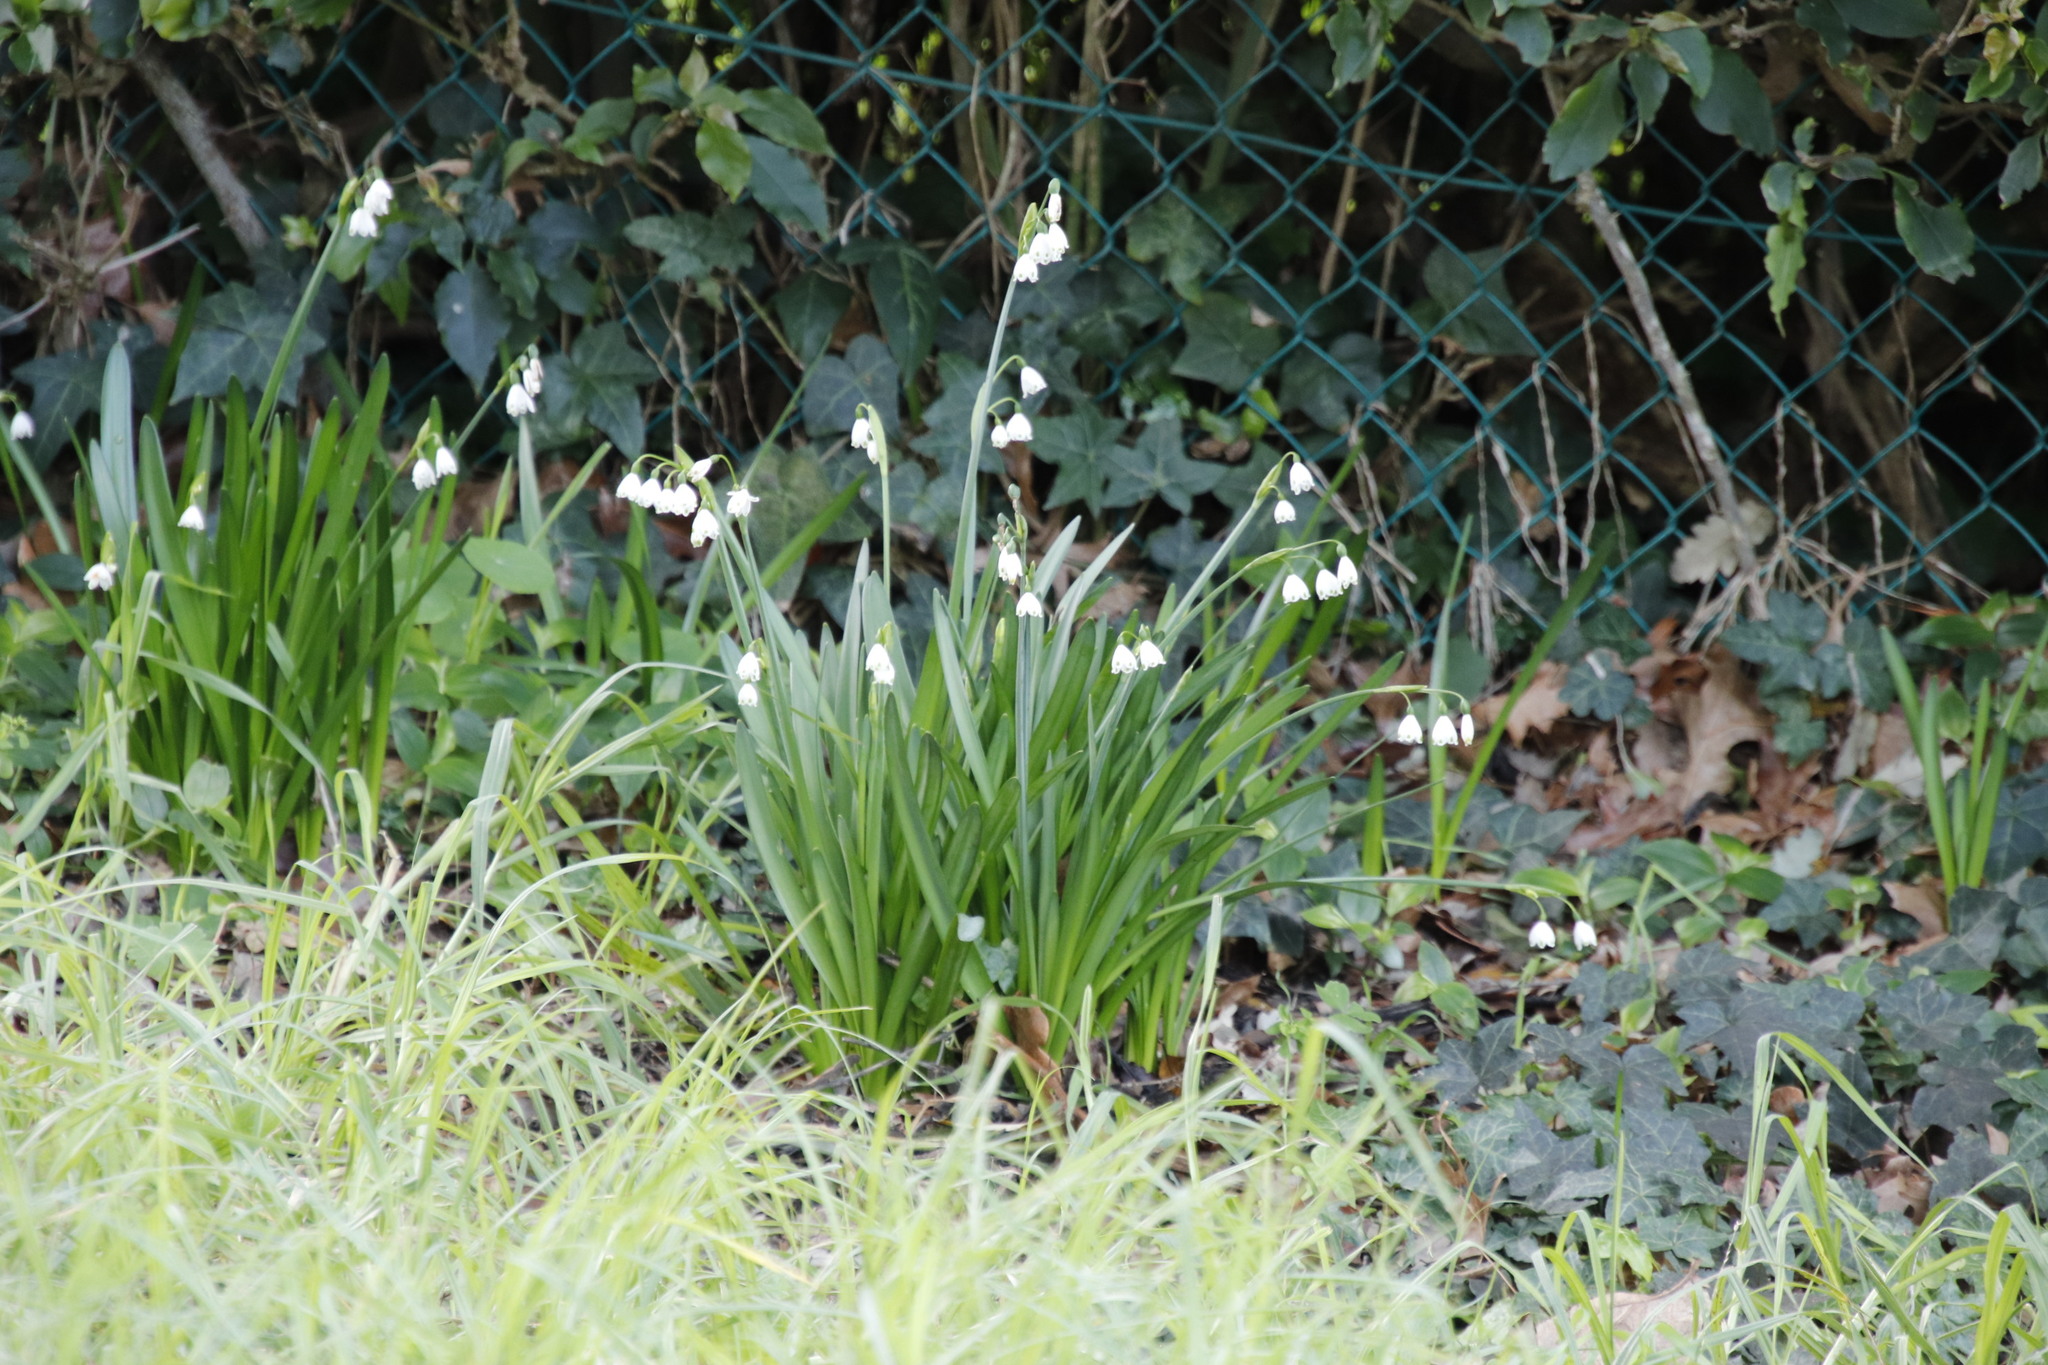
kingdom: Plantae
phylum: Tracheophyta
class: Liliopsida
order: Asparagales
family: Amaryllidaceae
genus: Leucojum
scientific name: Leucojum aestivum
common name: Summer snowflake
